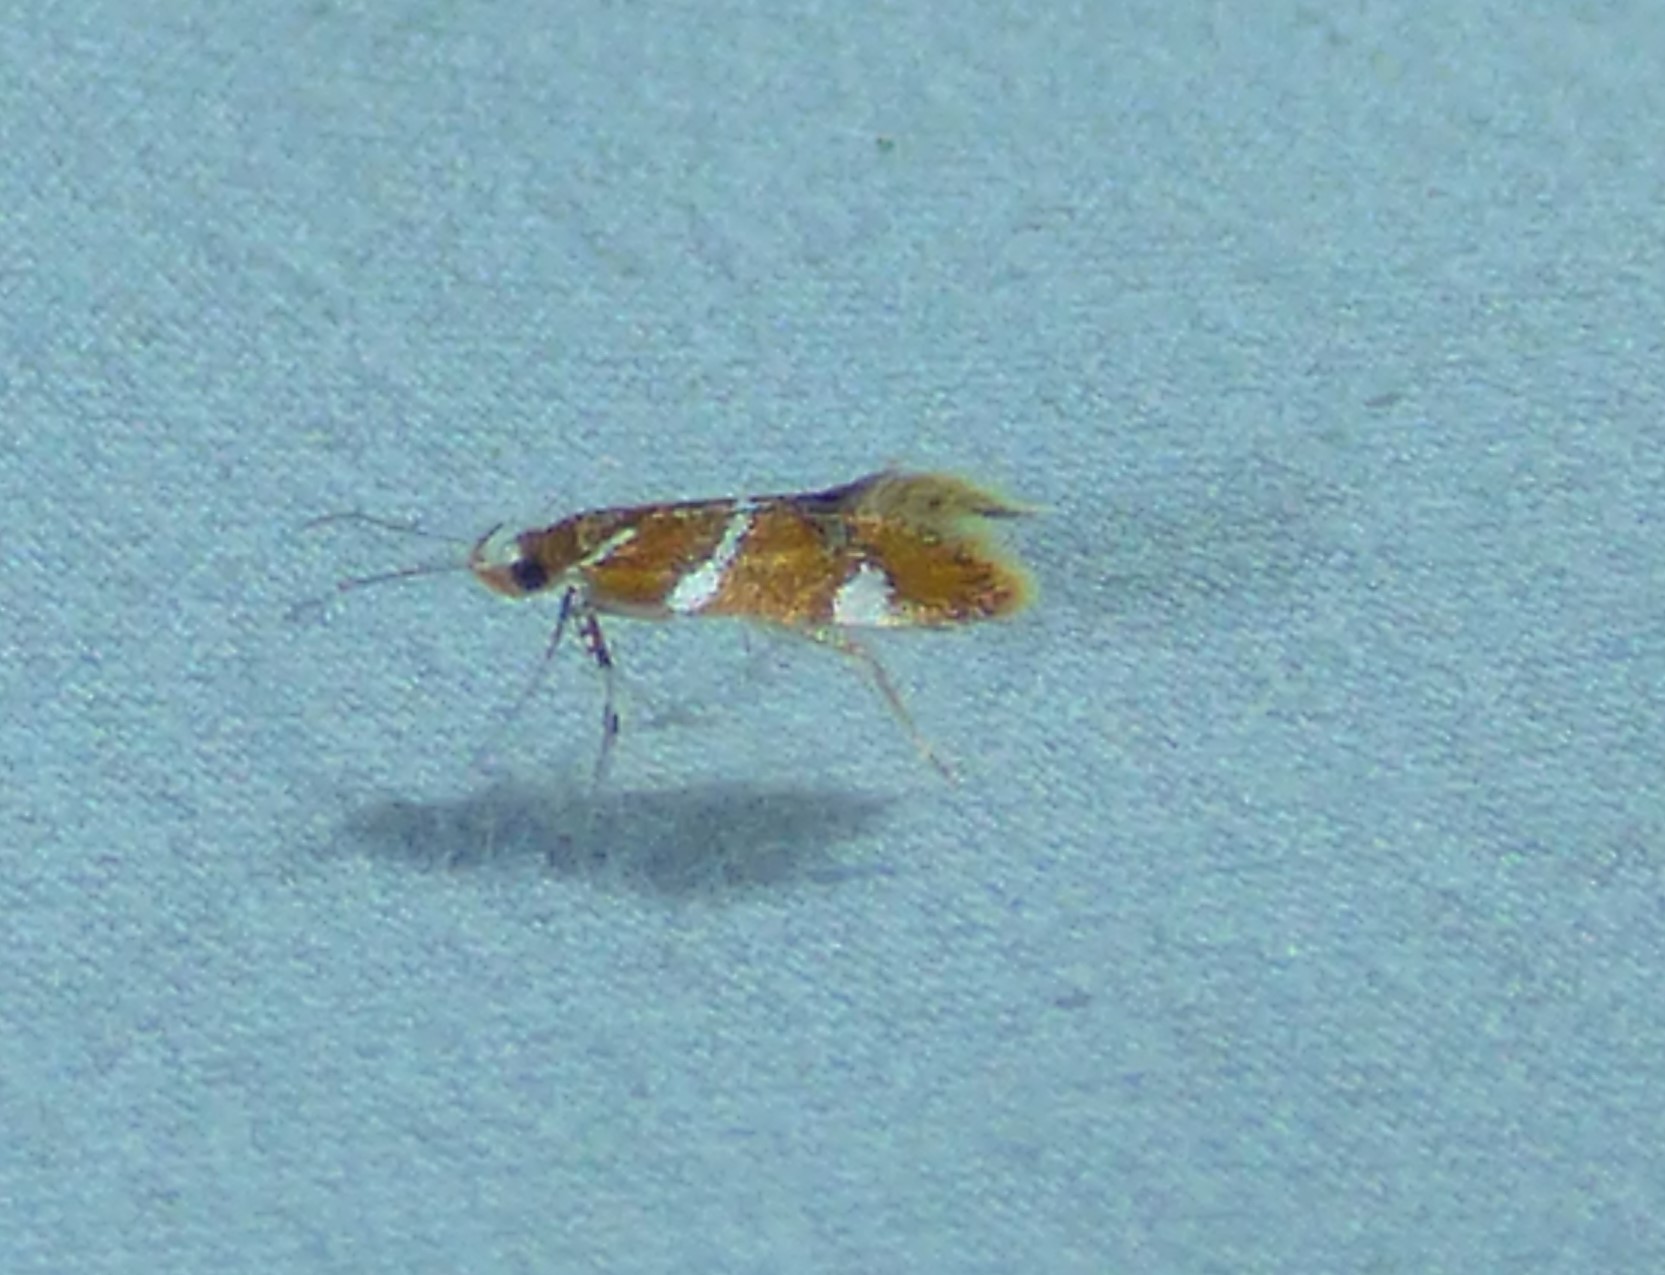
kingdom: Animalia
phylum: Arthropoda
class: Insecta
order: Lepidoptera
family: Oecophoridae
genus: Promalactis
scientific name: Promalactis suzukiella
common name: Moth
